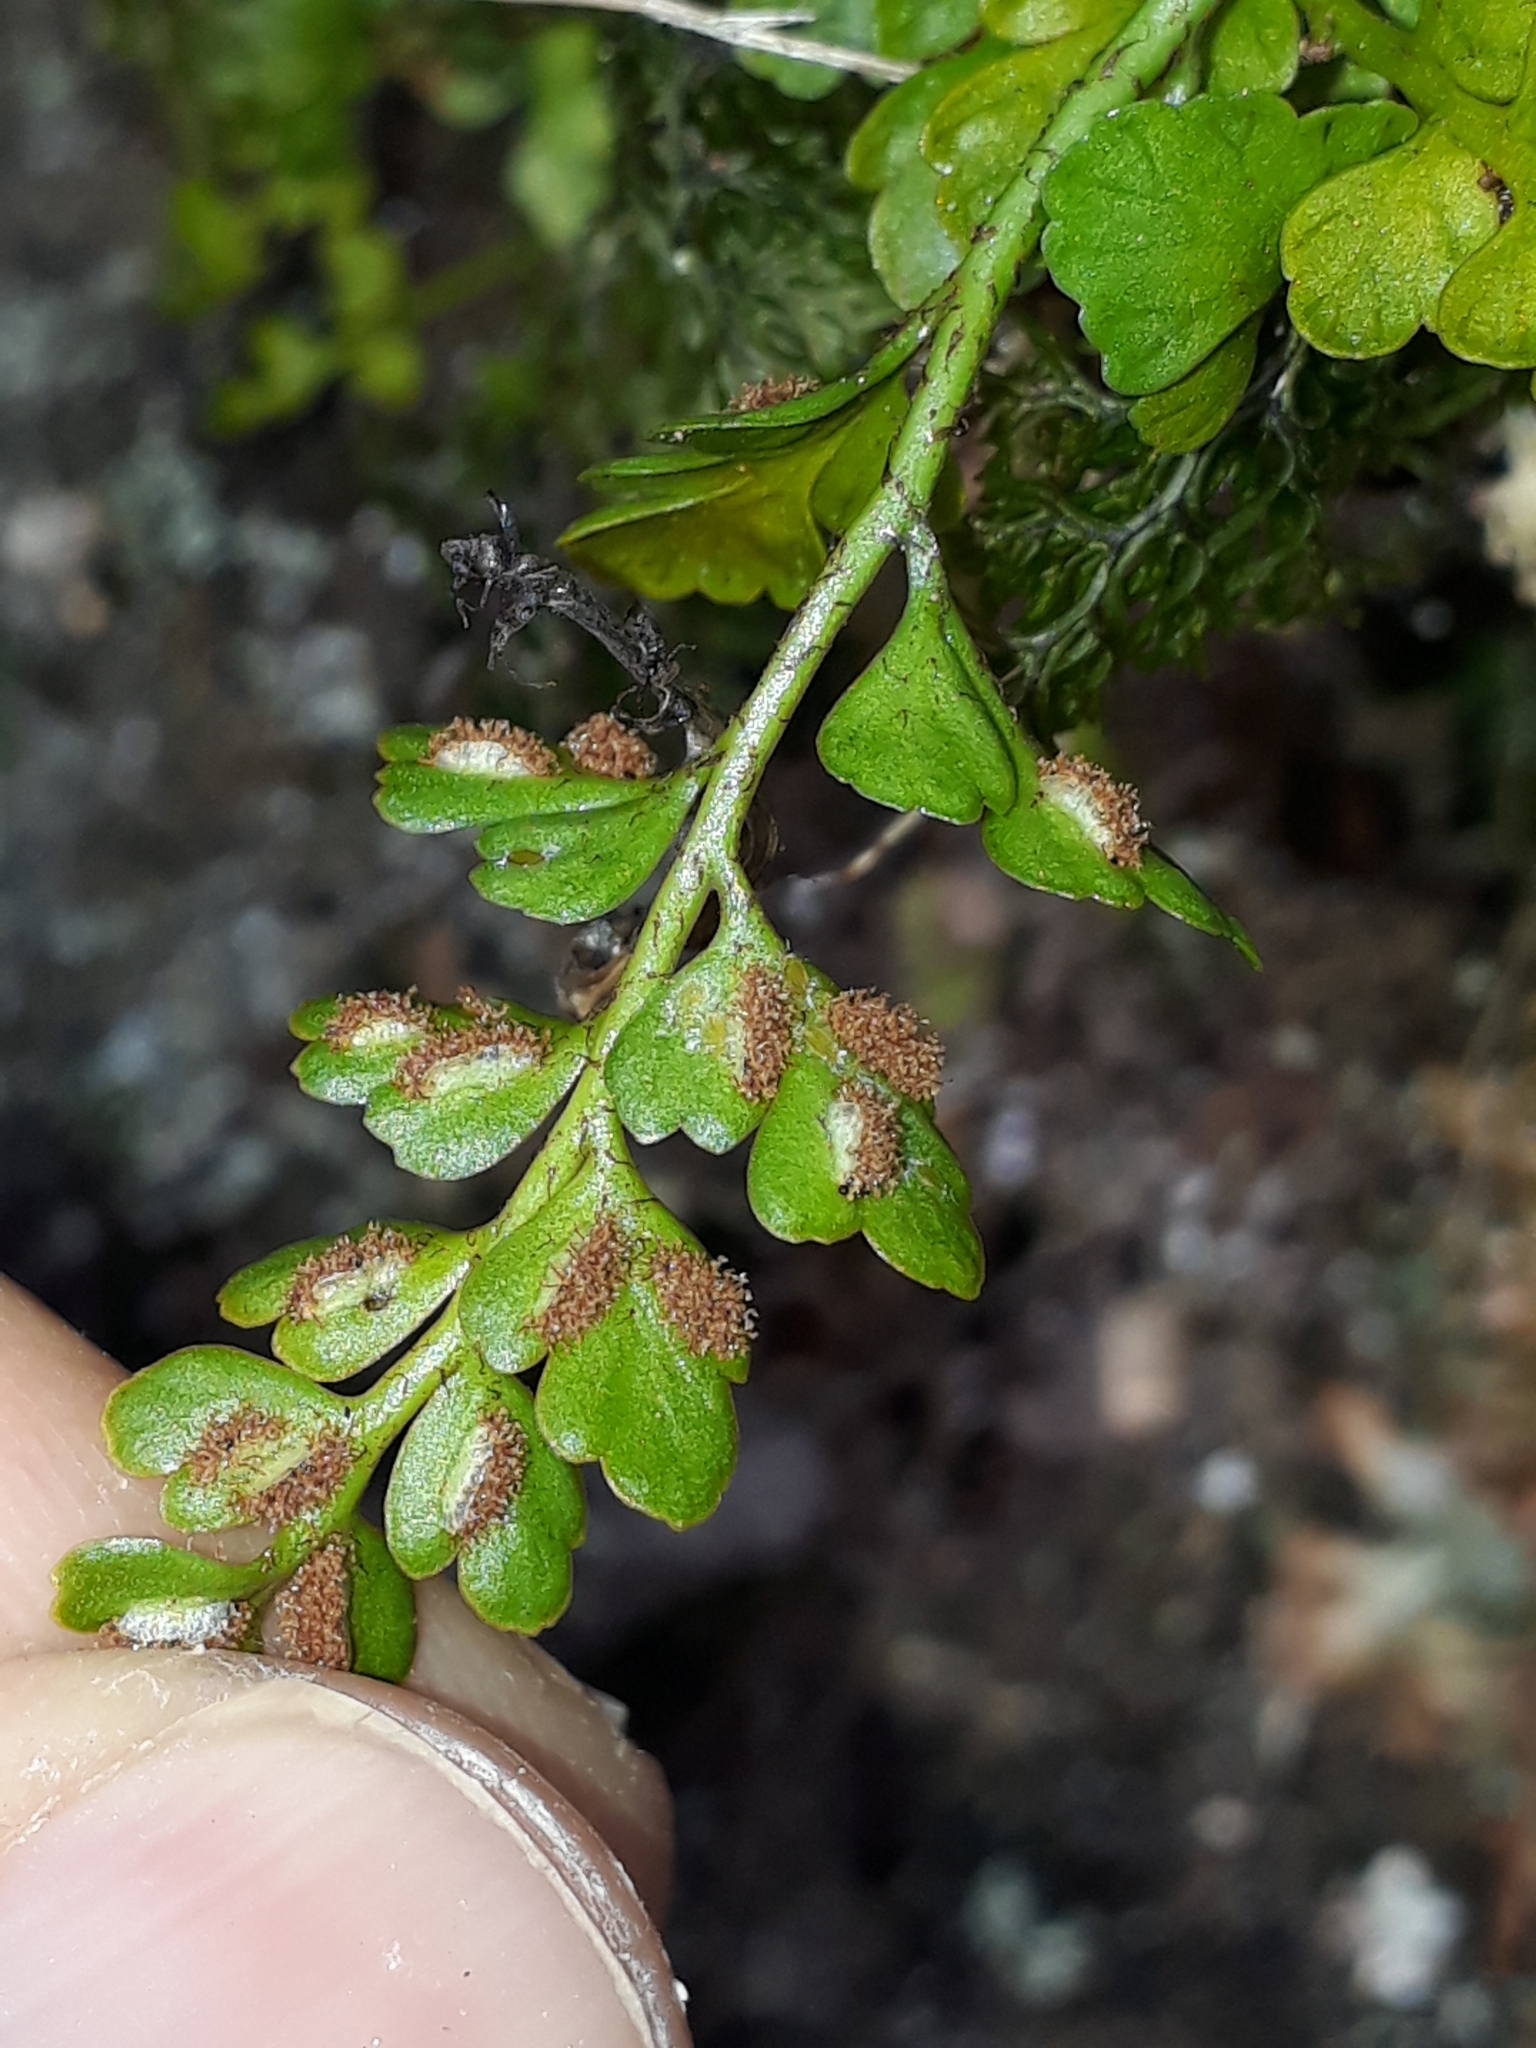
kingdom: Plantae
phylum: Tracheophyta
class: Polypodiopsida
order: Polypodiales
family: Aspleniaceae
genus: Asplenium
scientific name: Asplenium hookerianum
